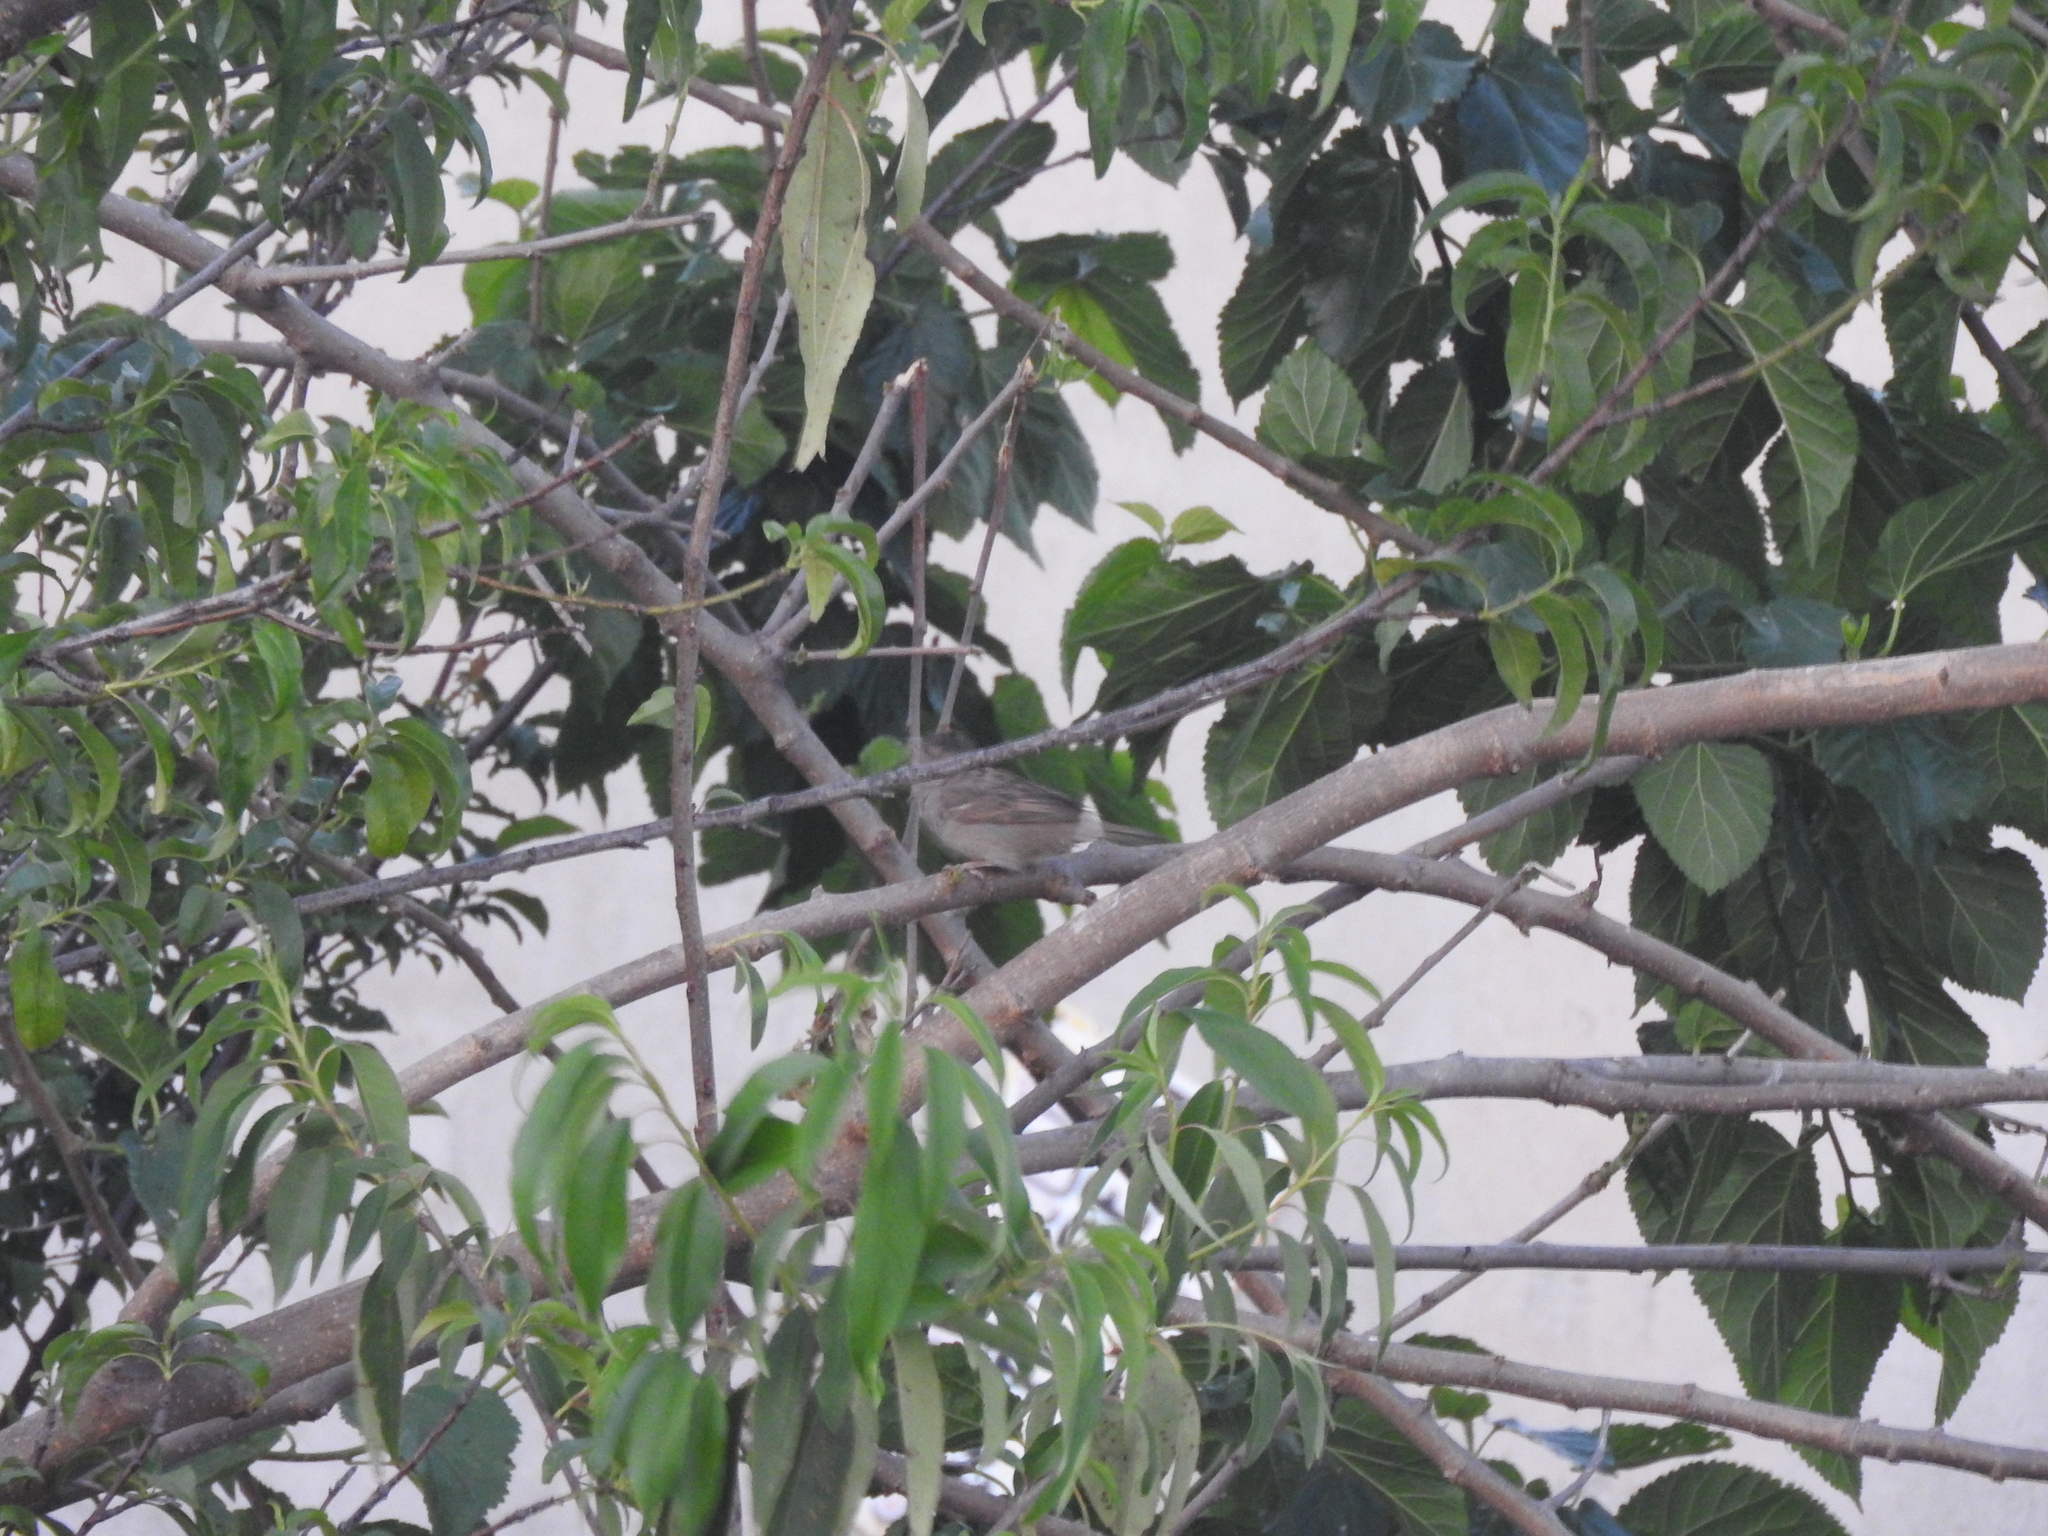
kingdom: Animalia
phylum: Chordata
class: Aves
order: Passeriformes
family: Passeridae
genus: Passer
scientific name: Passer domesticus
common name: House sparrow
